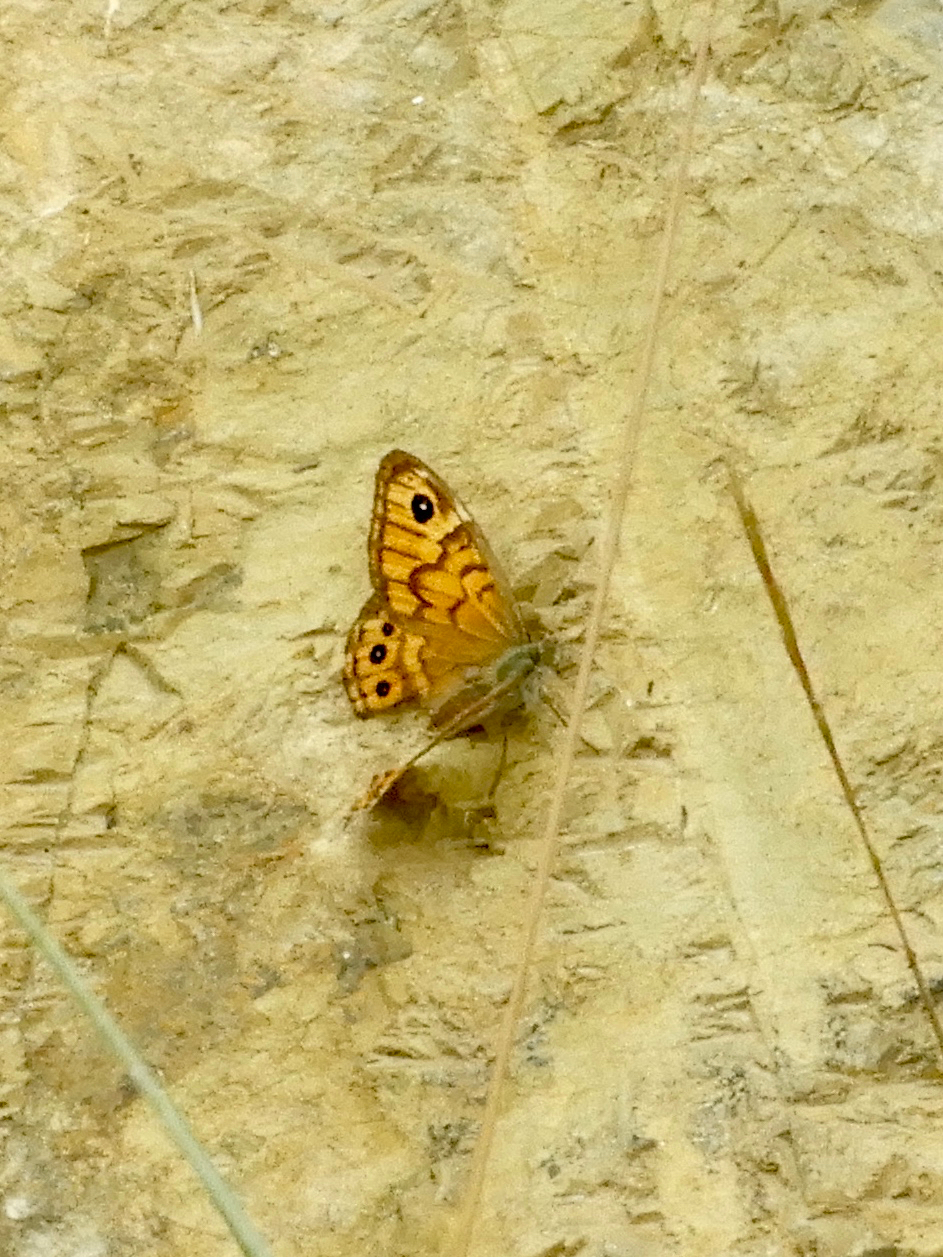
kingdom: Animalia
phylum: Arthropoda
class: Insecta
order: Lepidoptera
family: Nymphalidae
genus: Pararge
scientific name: Pararge Lasiommata megera
